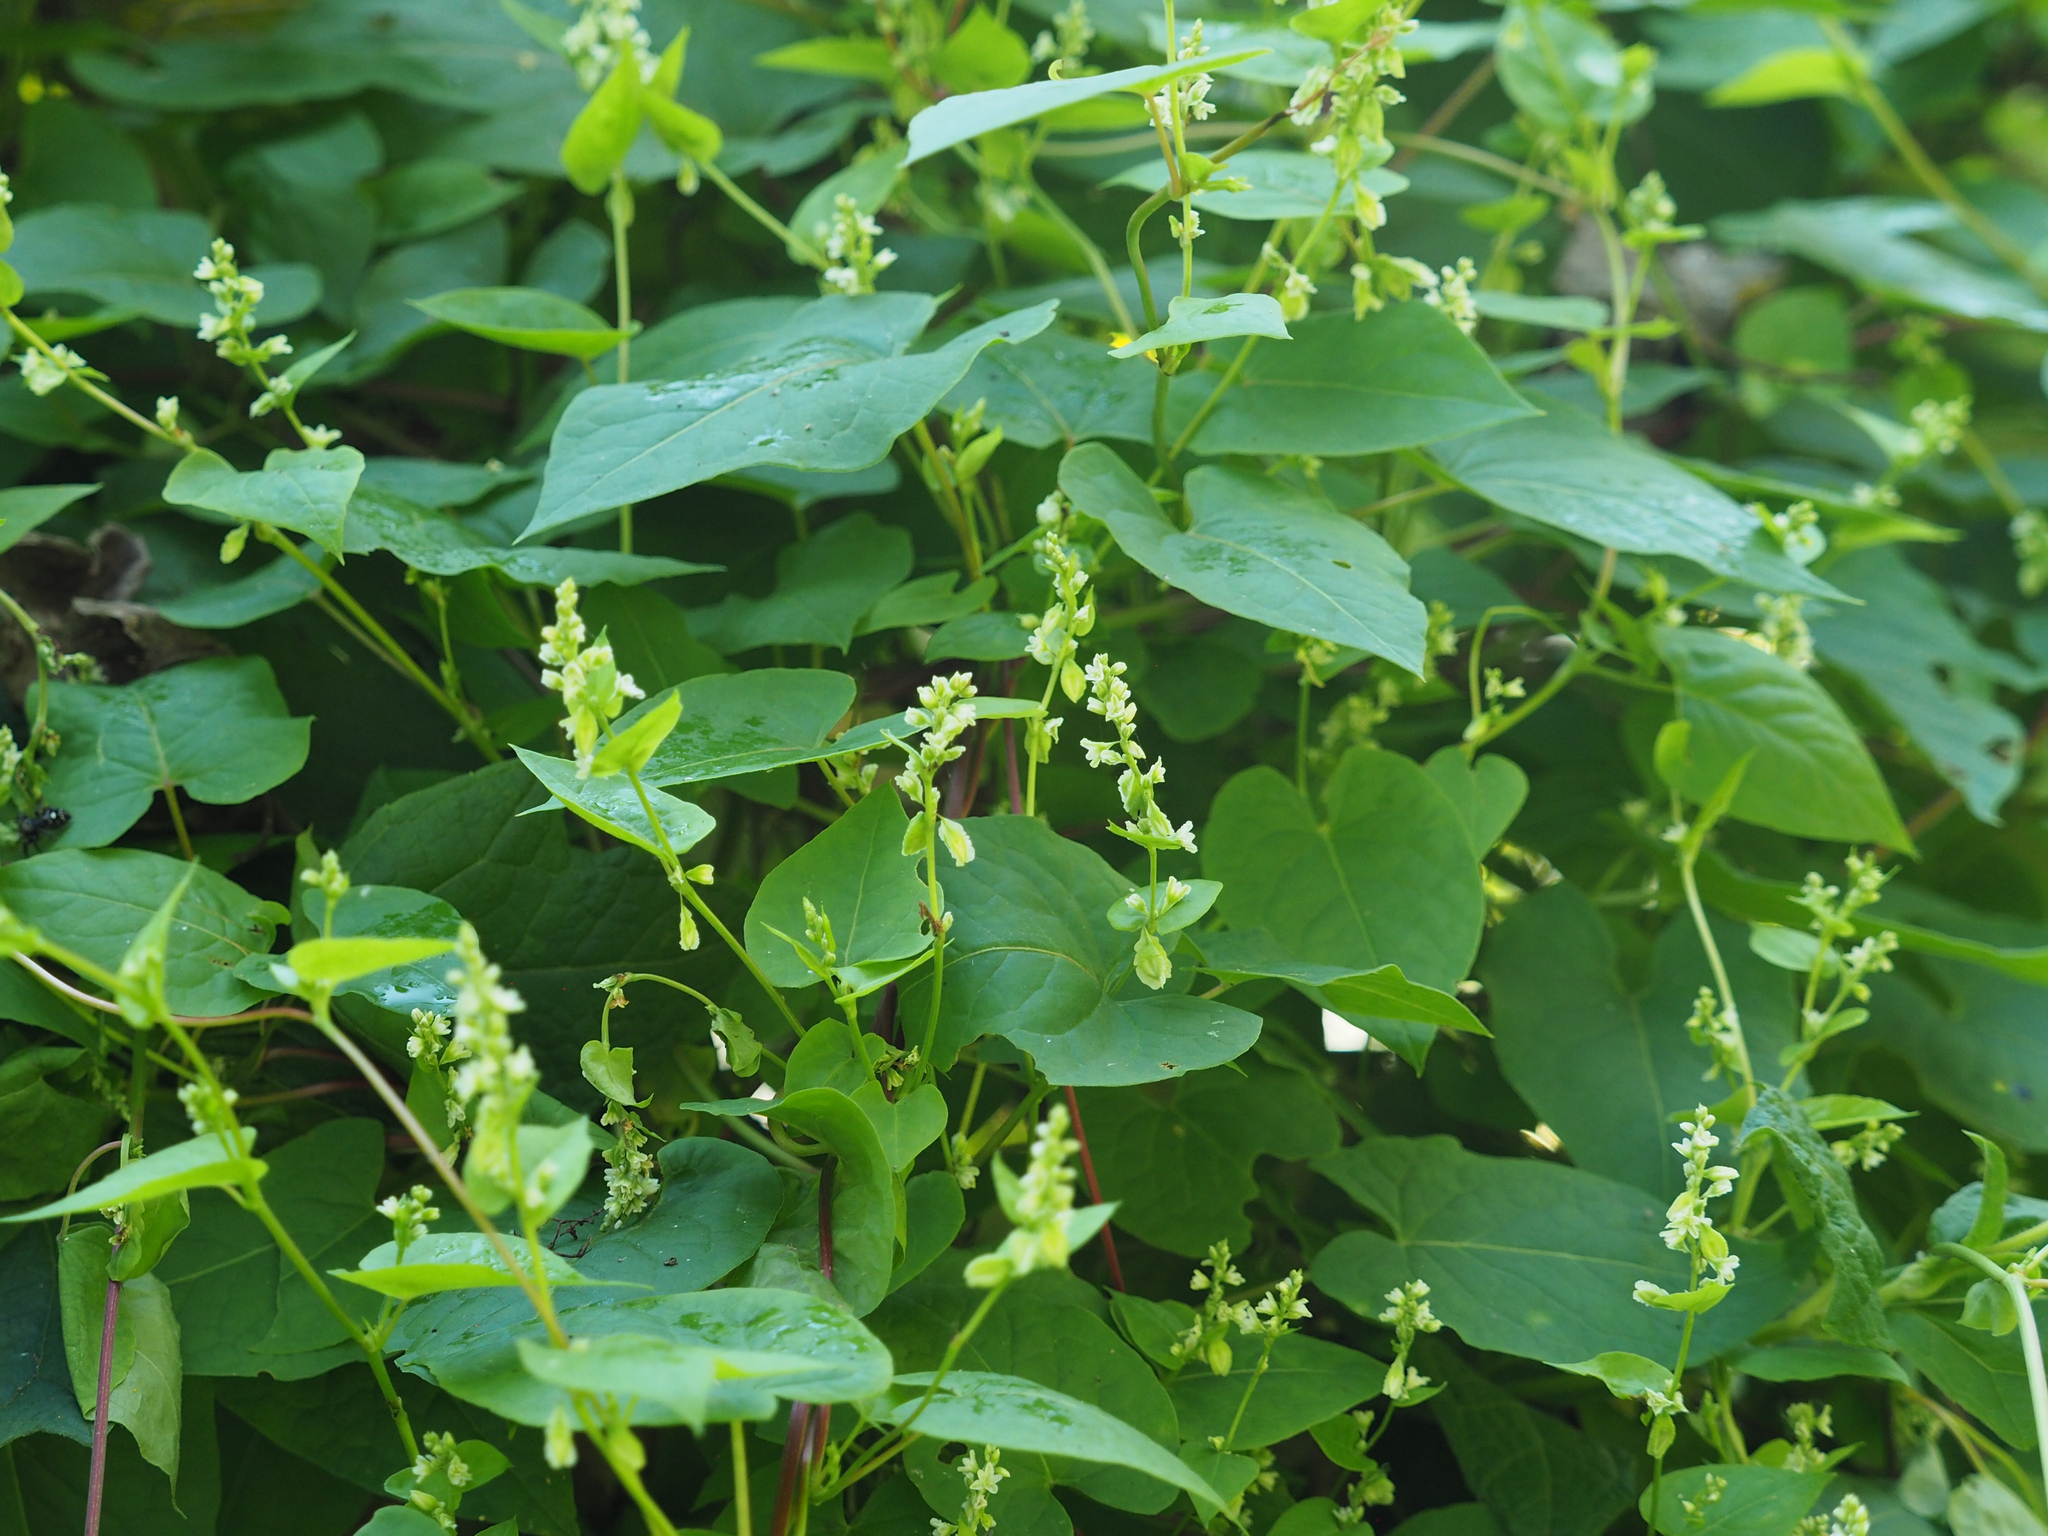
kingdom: Plantae
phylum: Tracheophyta
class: Magnoliopsida
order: Caryophyllales
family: Polygonaceae
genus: Fallopia
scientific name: Fallopia scandens
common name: Climbing false buckwheat
